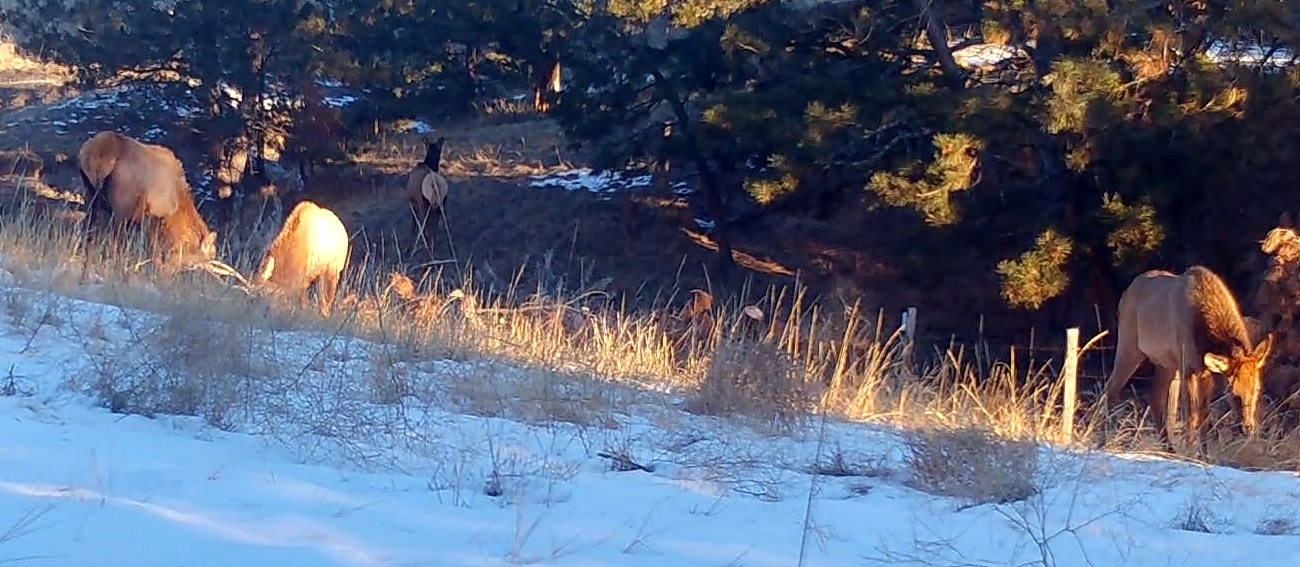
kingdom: Animalia
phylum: Chordata
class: Mammalia
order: Artiodactyla
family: Cervidae
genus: Cervus
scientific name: Cervus elaphus
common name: Red deer
